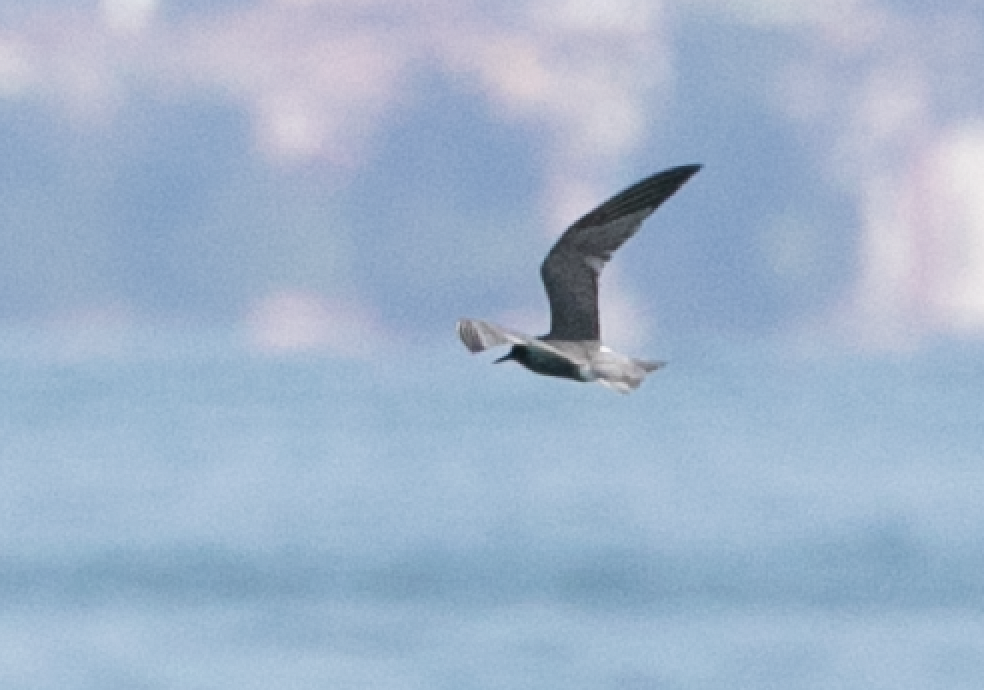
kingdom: Animalia
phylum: Chordata
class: Aves
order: Charadriiformes
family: Laridae
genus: Chlidonias
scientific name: Chlidonias niger
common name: Black tern
